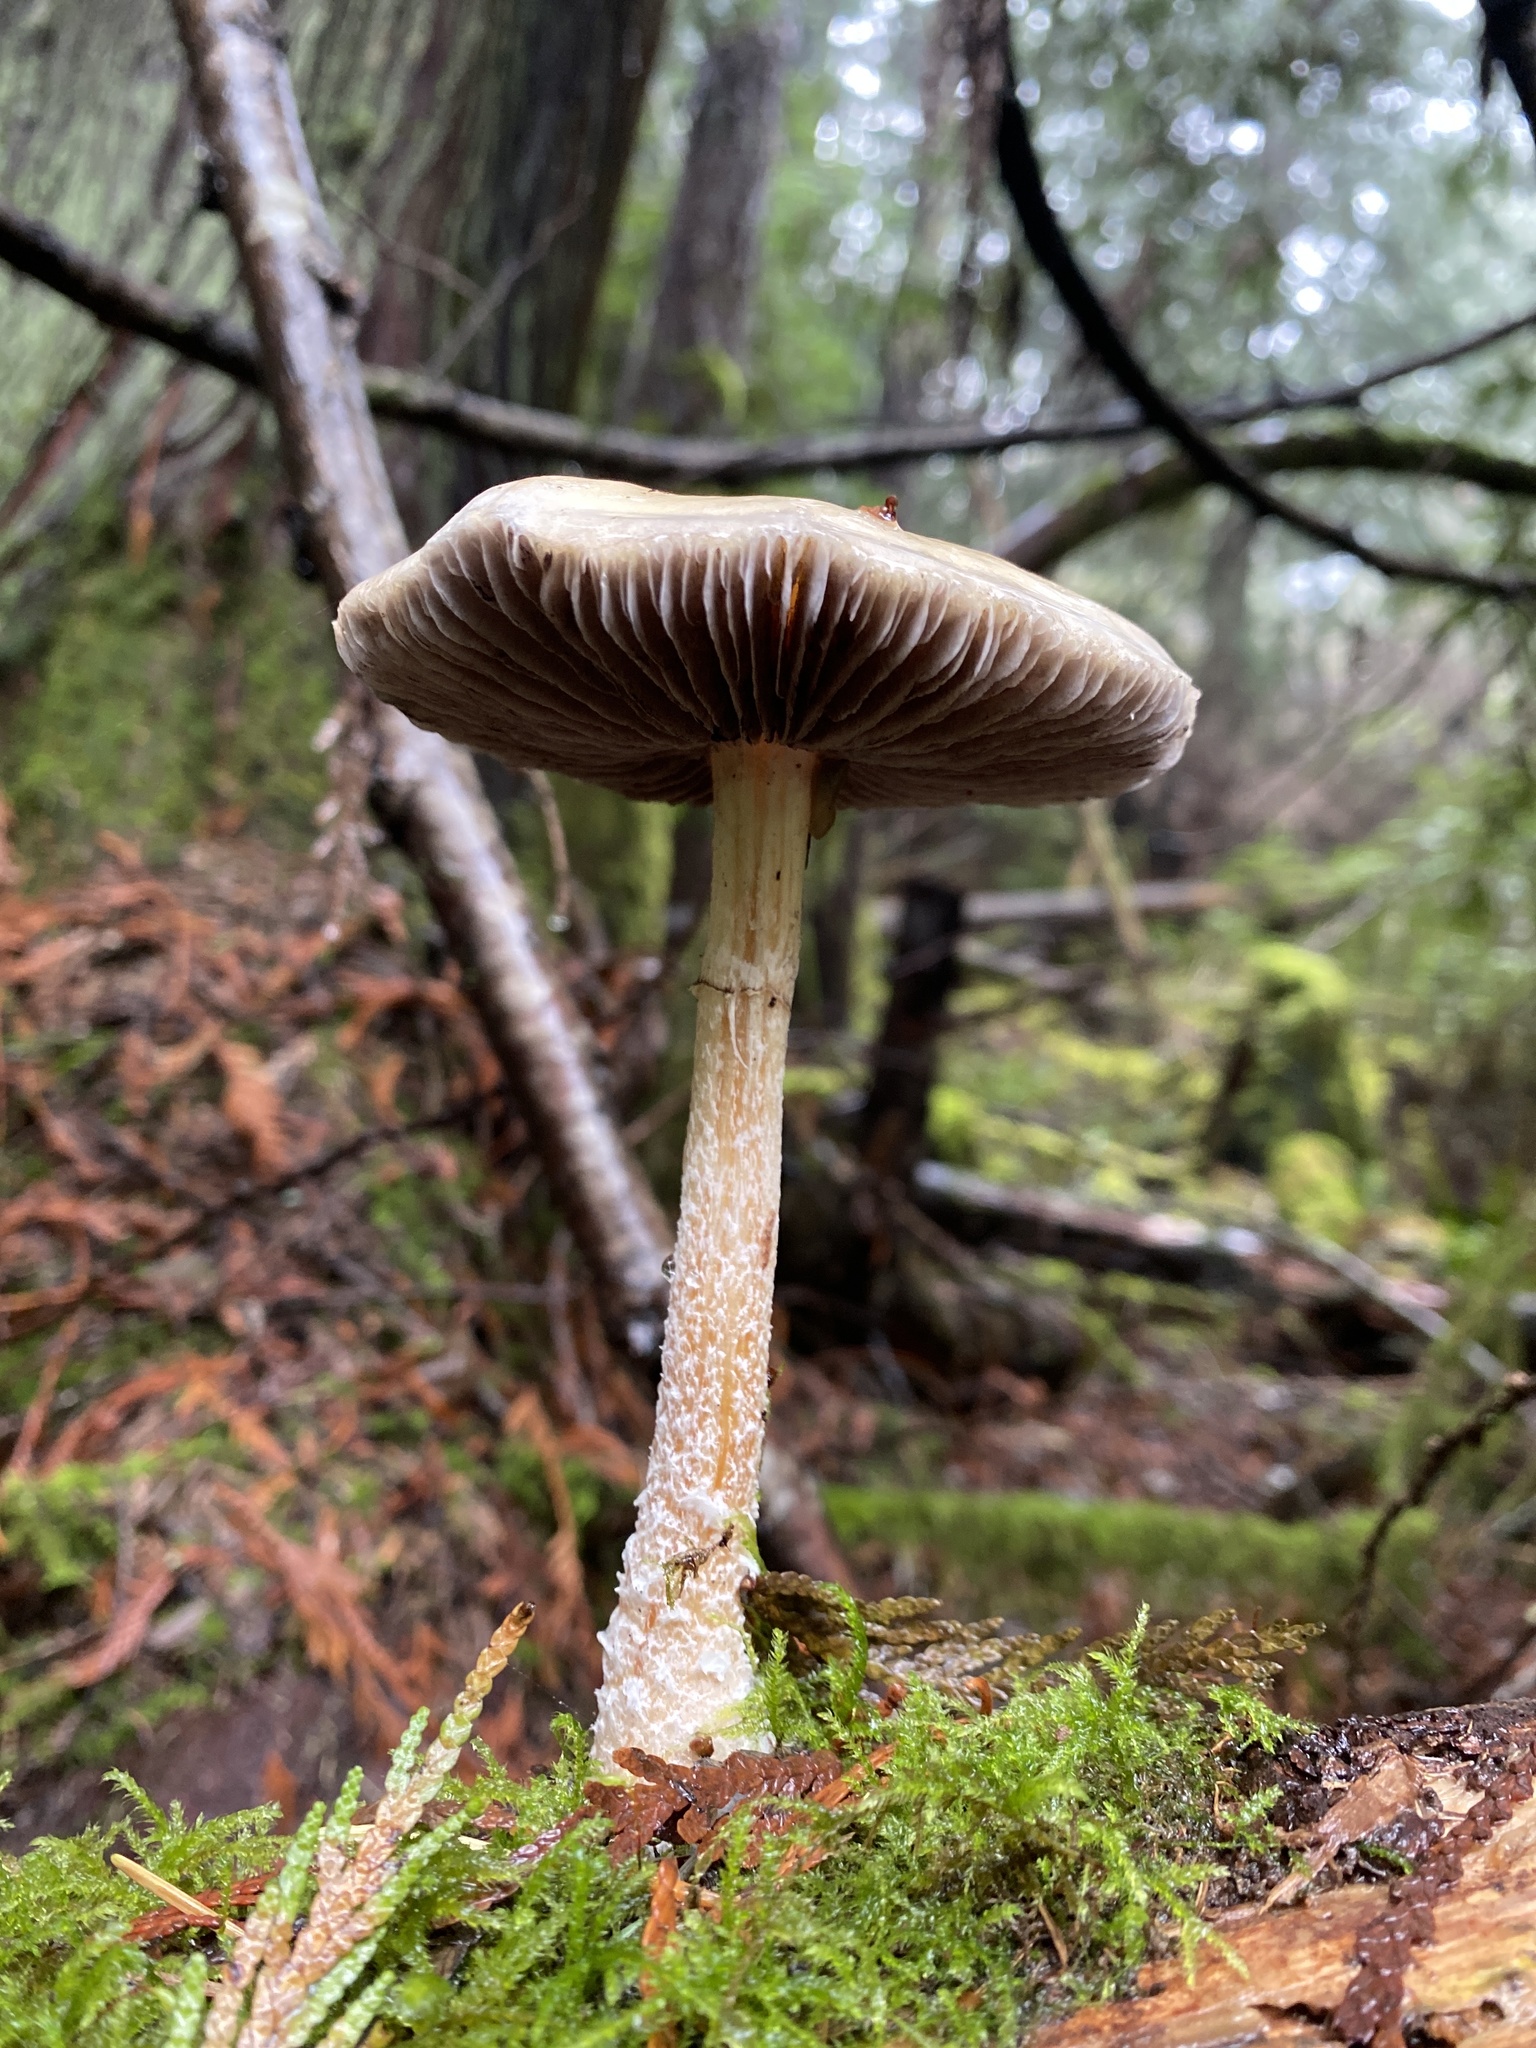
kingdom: Fungi
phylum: Basidiomycota
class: Agaricomycetes
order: Agaricales
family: Strophariaceae
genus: Stropharia
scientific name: Stropharia ambigua
